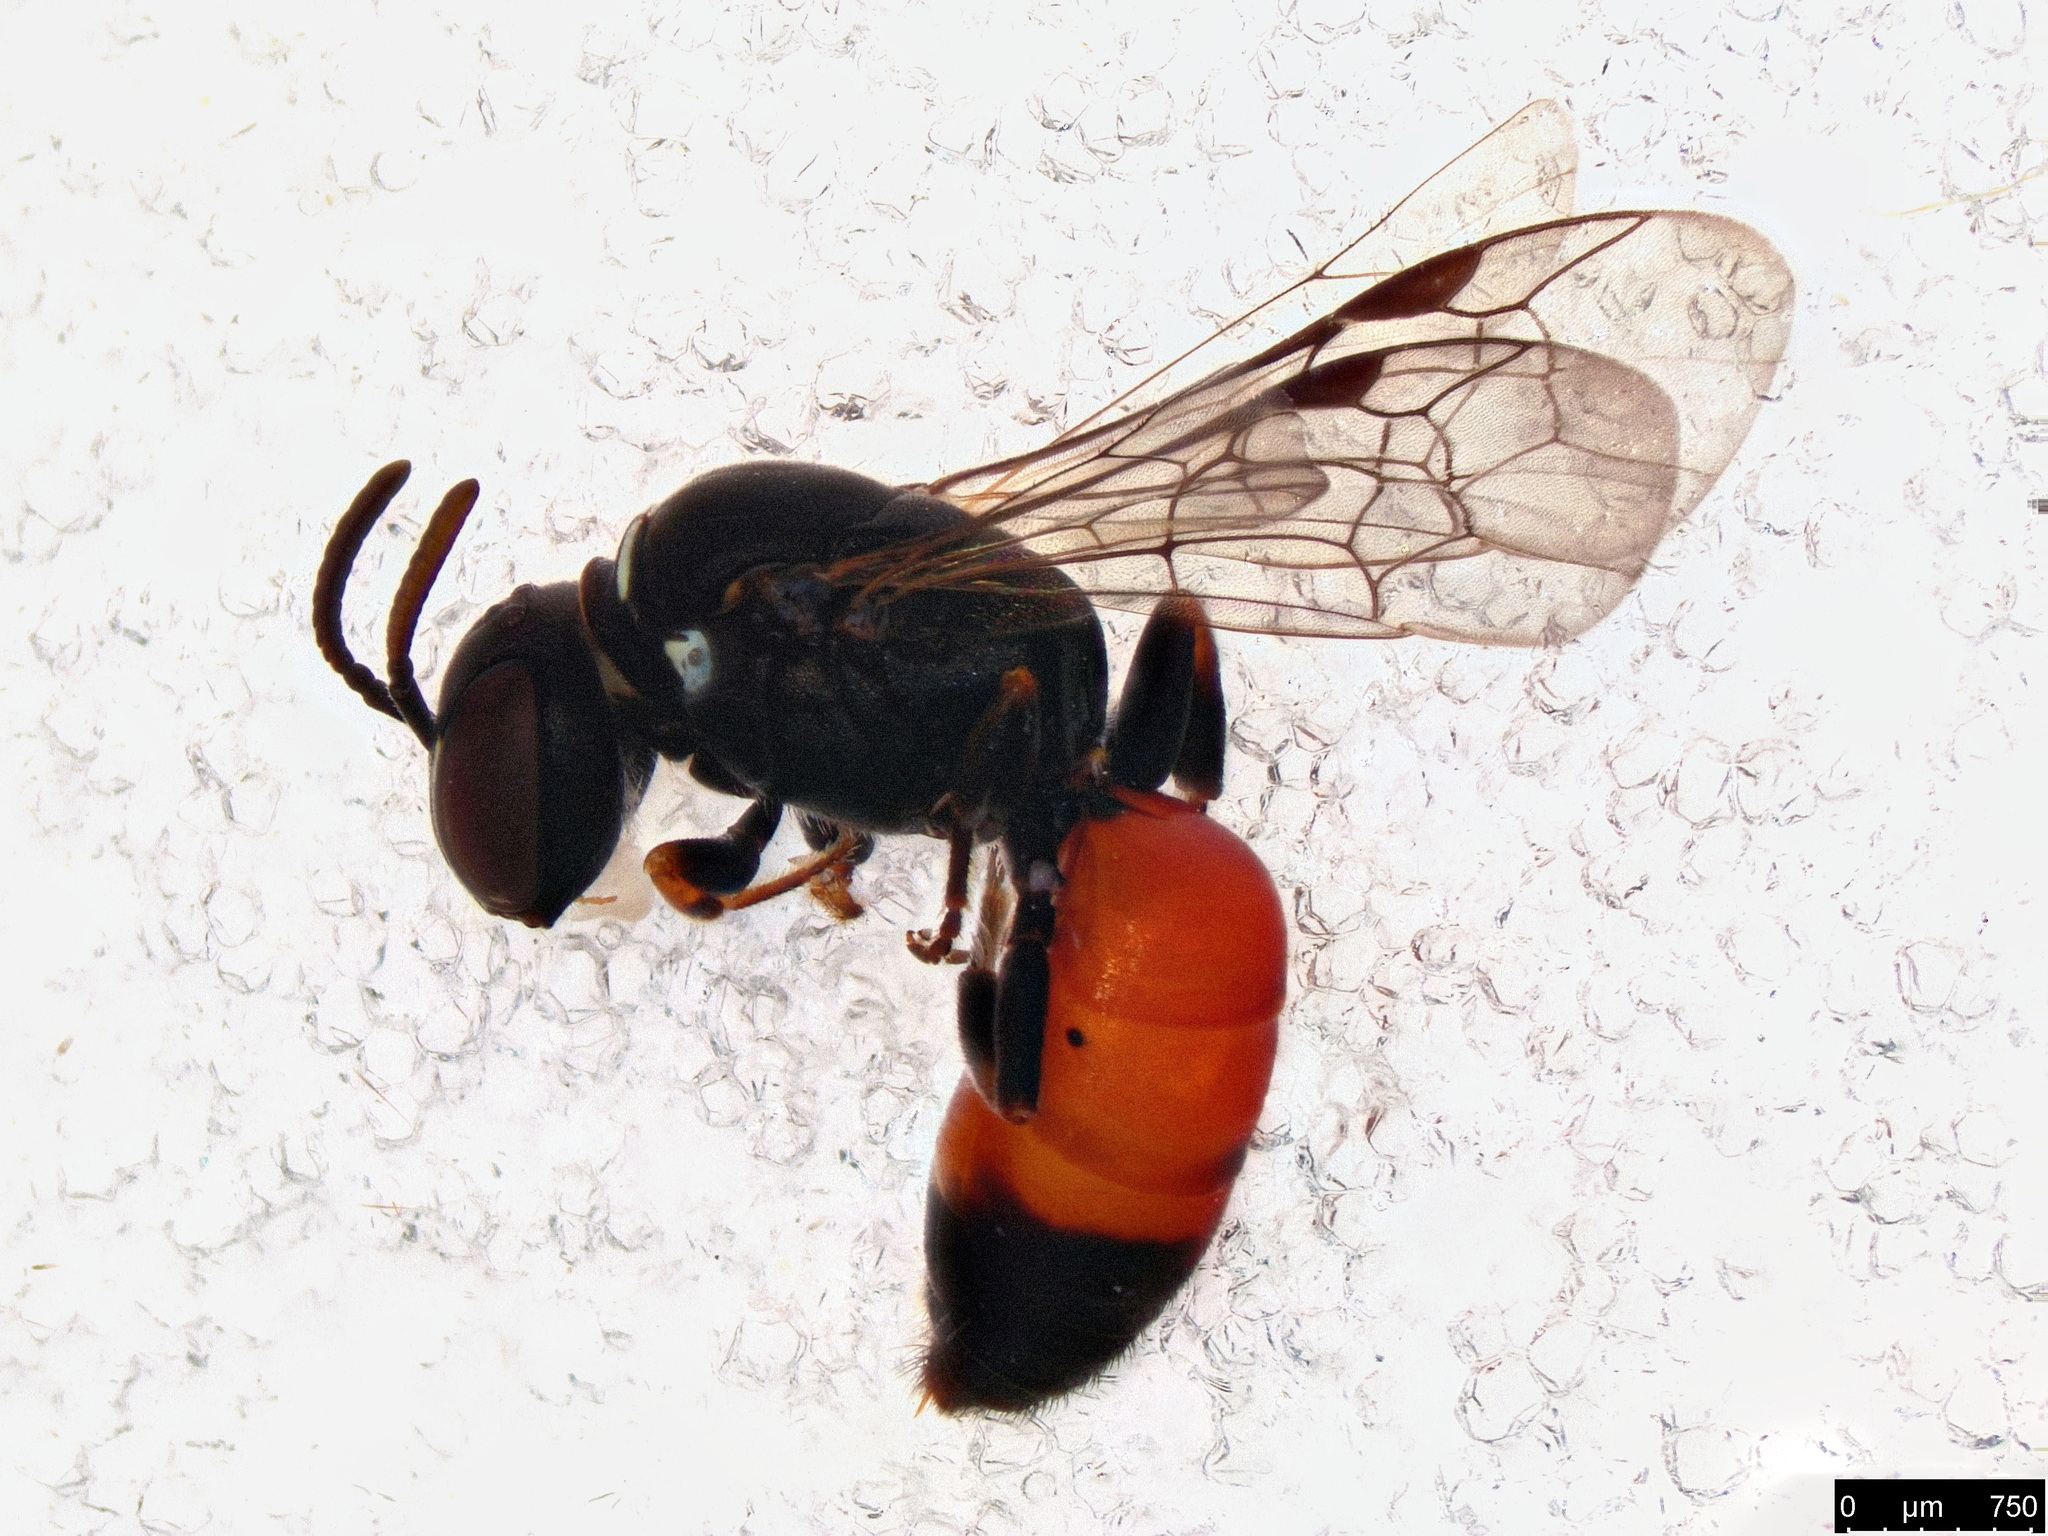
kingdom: Animalia
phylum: Arthropoda
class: Insecta
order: Hymenoptera
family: Colletidae
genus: Hylaeus
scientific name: Hylaeus littleri
